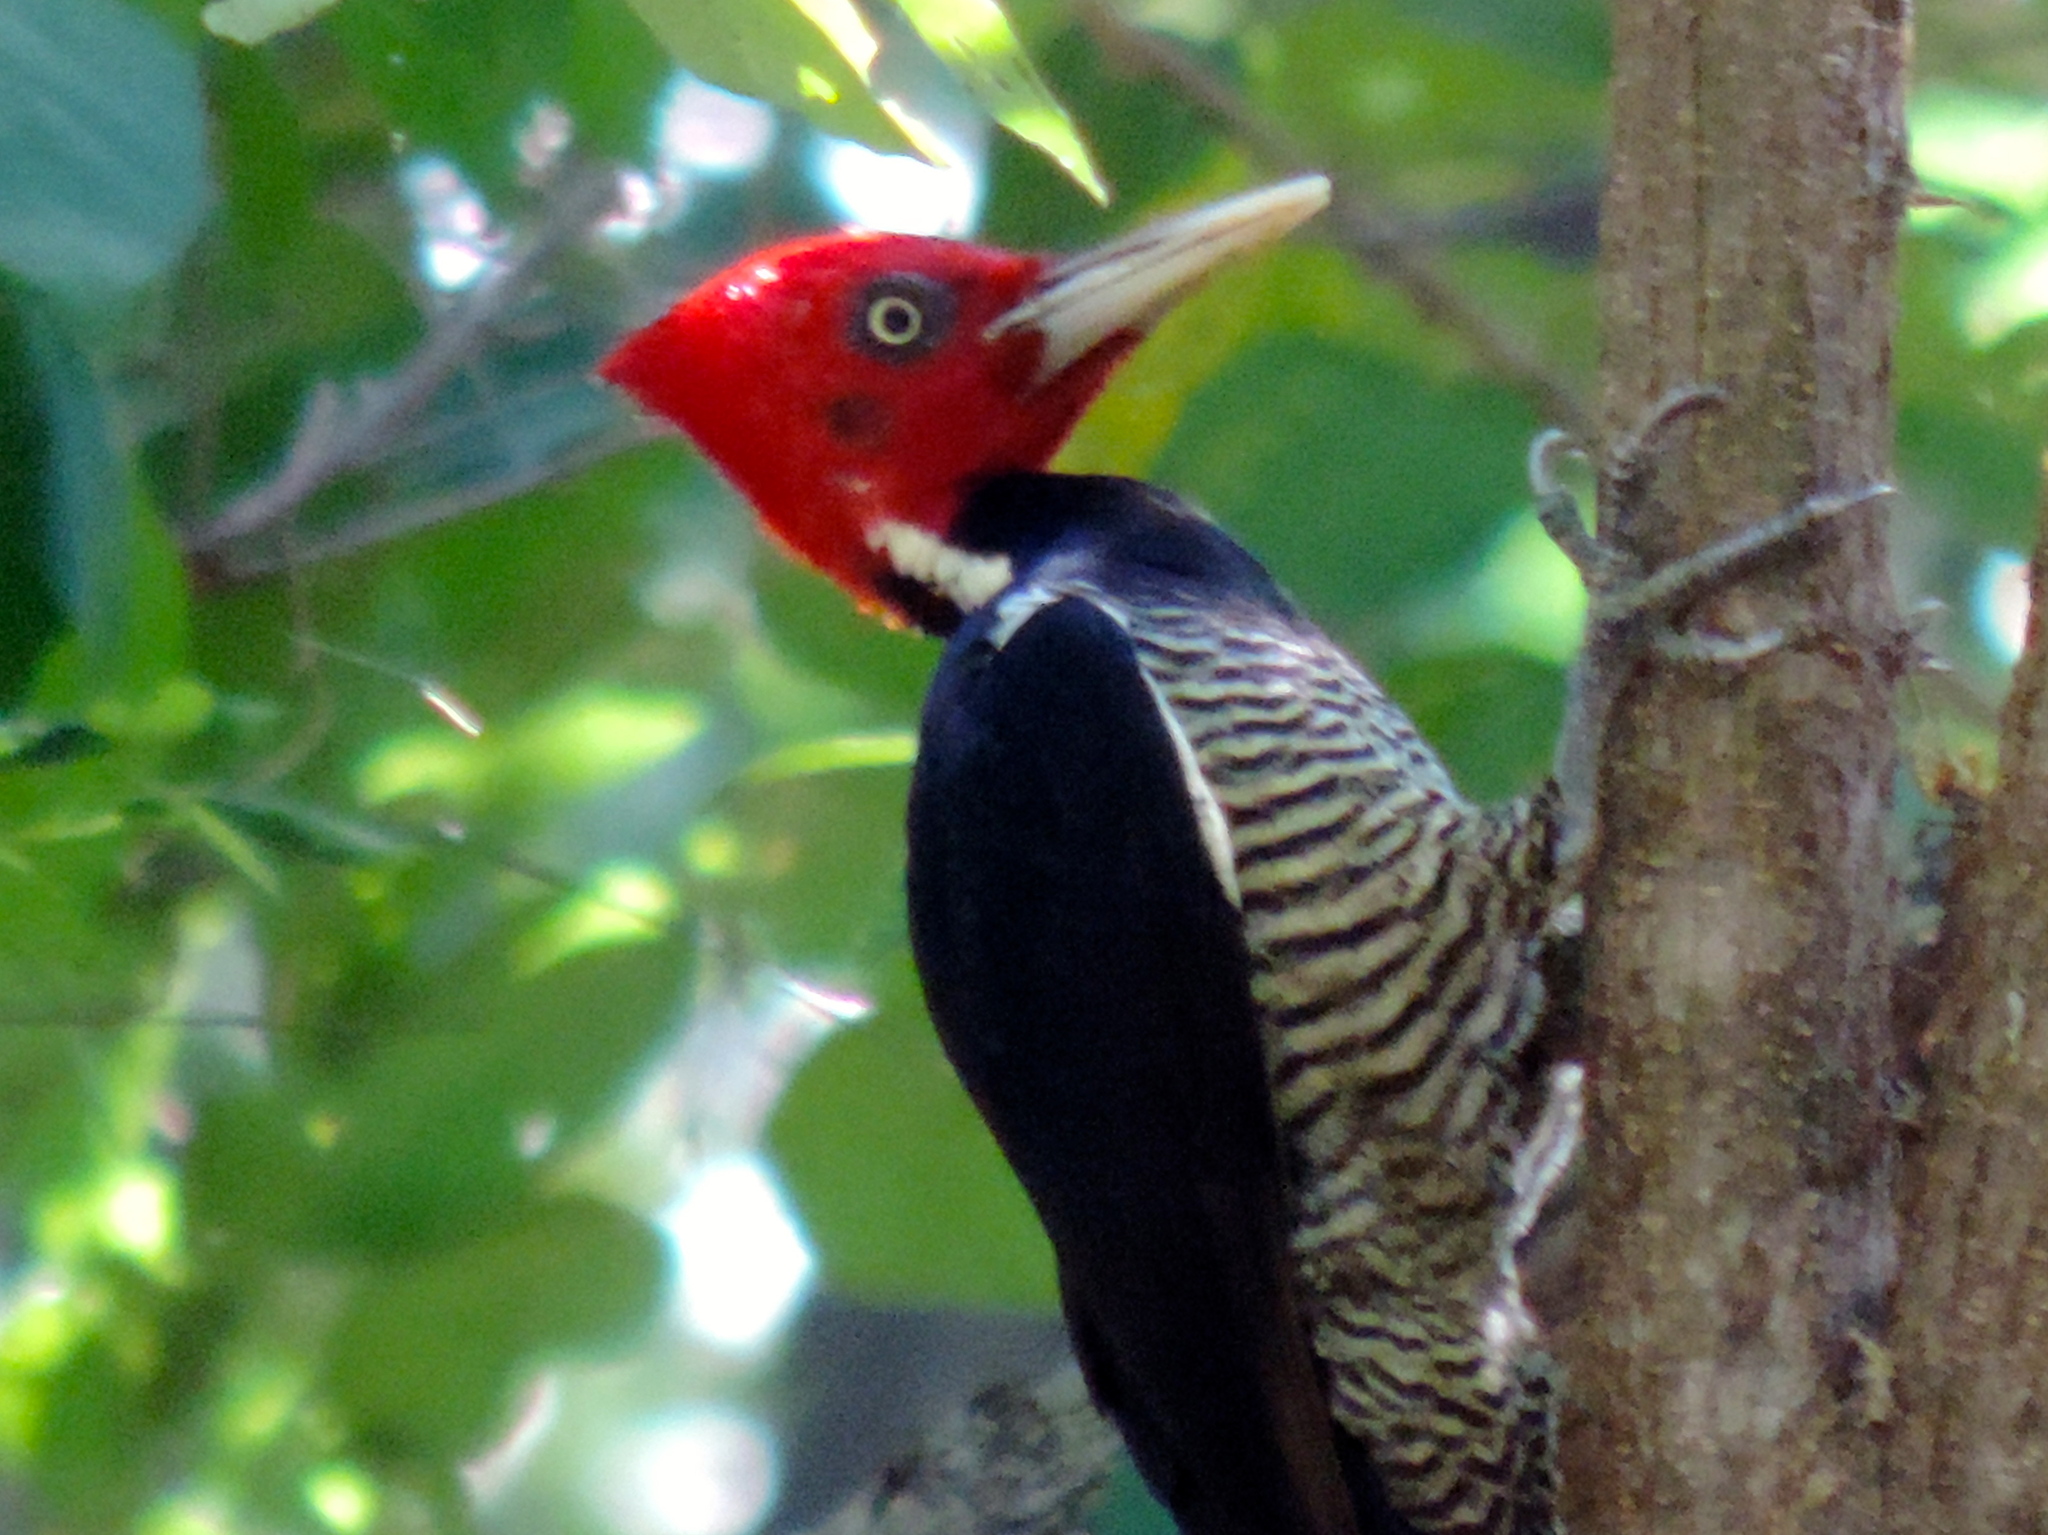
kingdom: Animalia
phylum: Chordata
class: Aves
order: Piciformes
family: Picidae
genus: Campephilus
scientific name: Campephilus guatemalensis
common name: Pale-billed woodpecker
